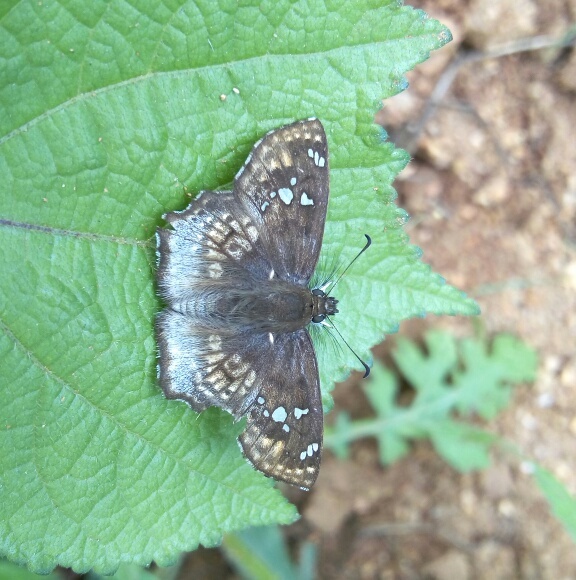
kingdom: Animalia
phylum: Arthropoda
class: Insecta
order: Lepidoptera
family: Hesperiidae
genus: Caprona
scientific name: Caprona ransonnettii
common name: Golden angle
